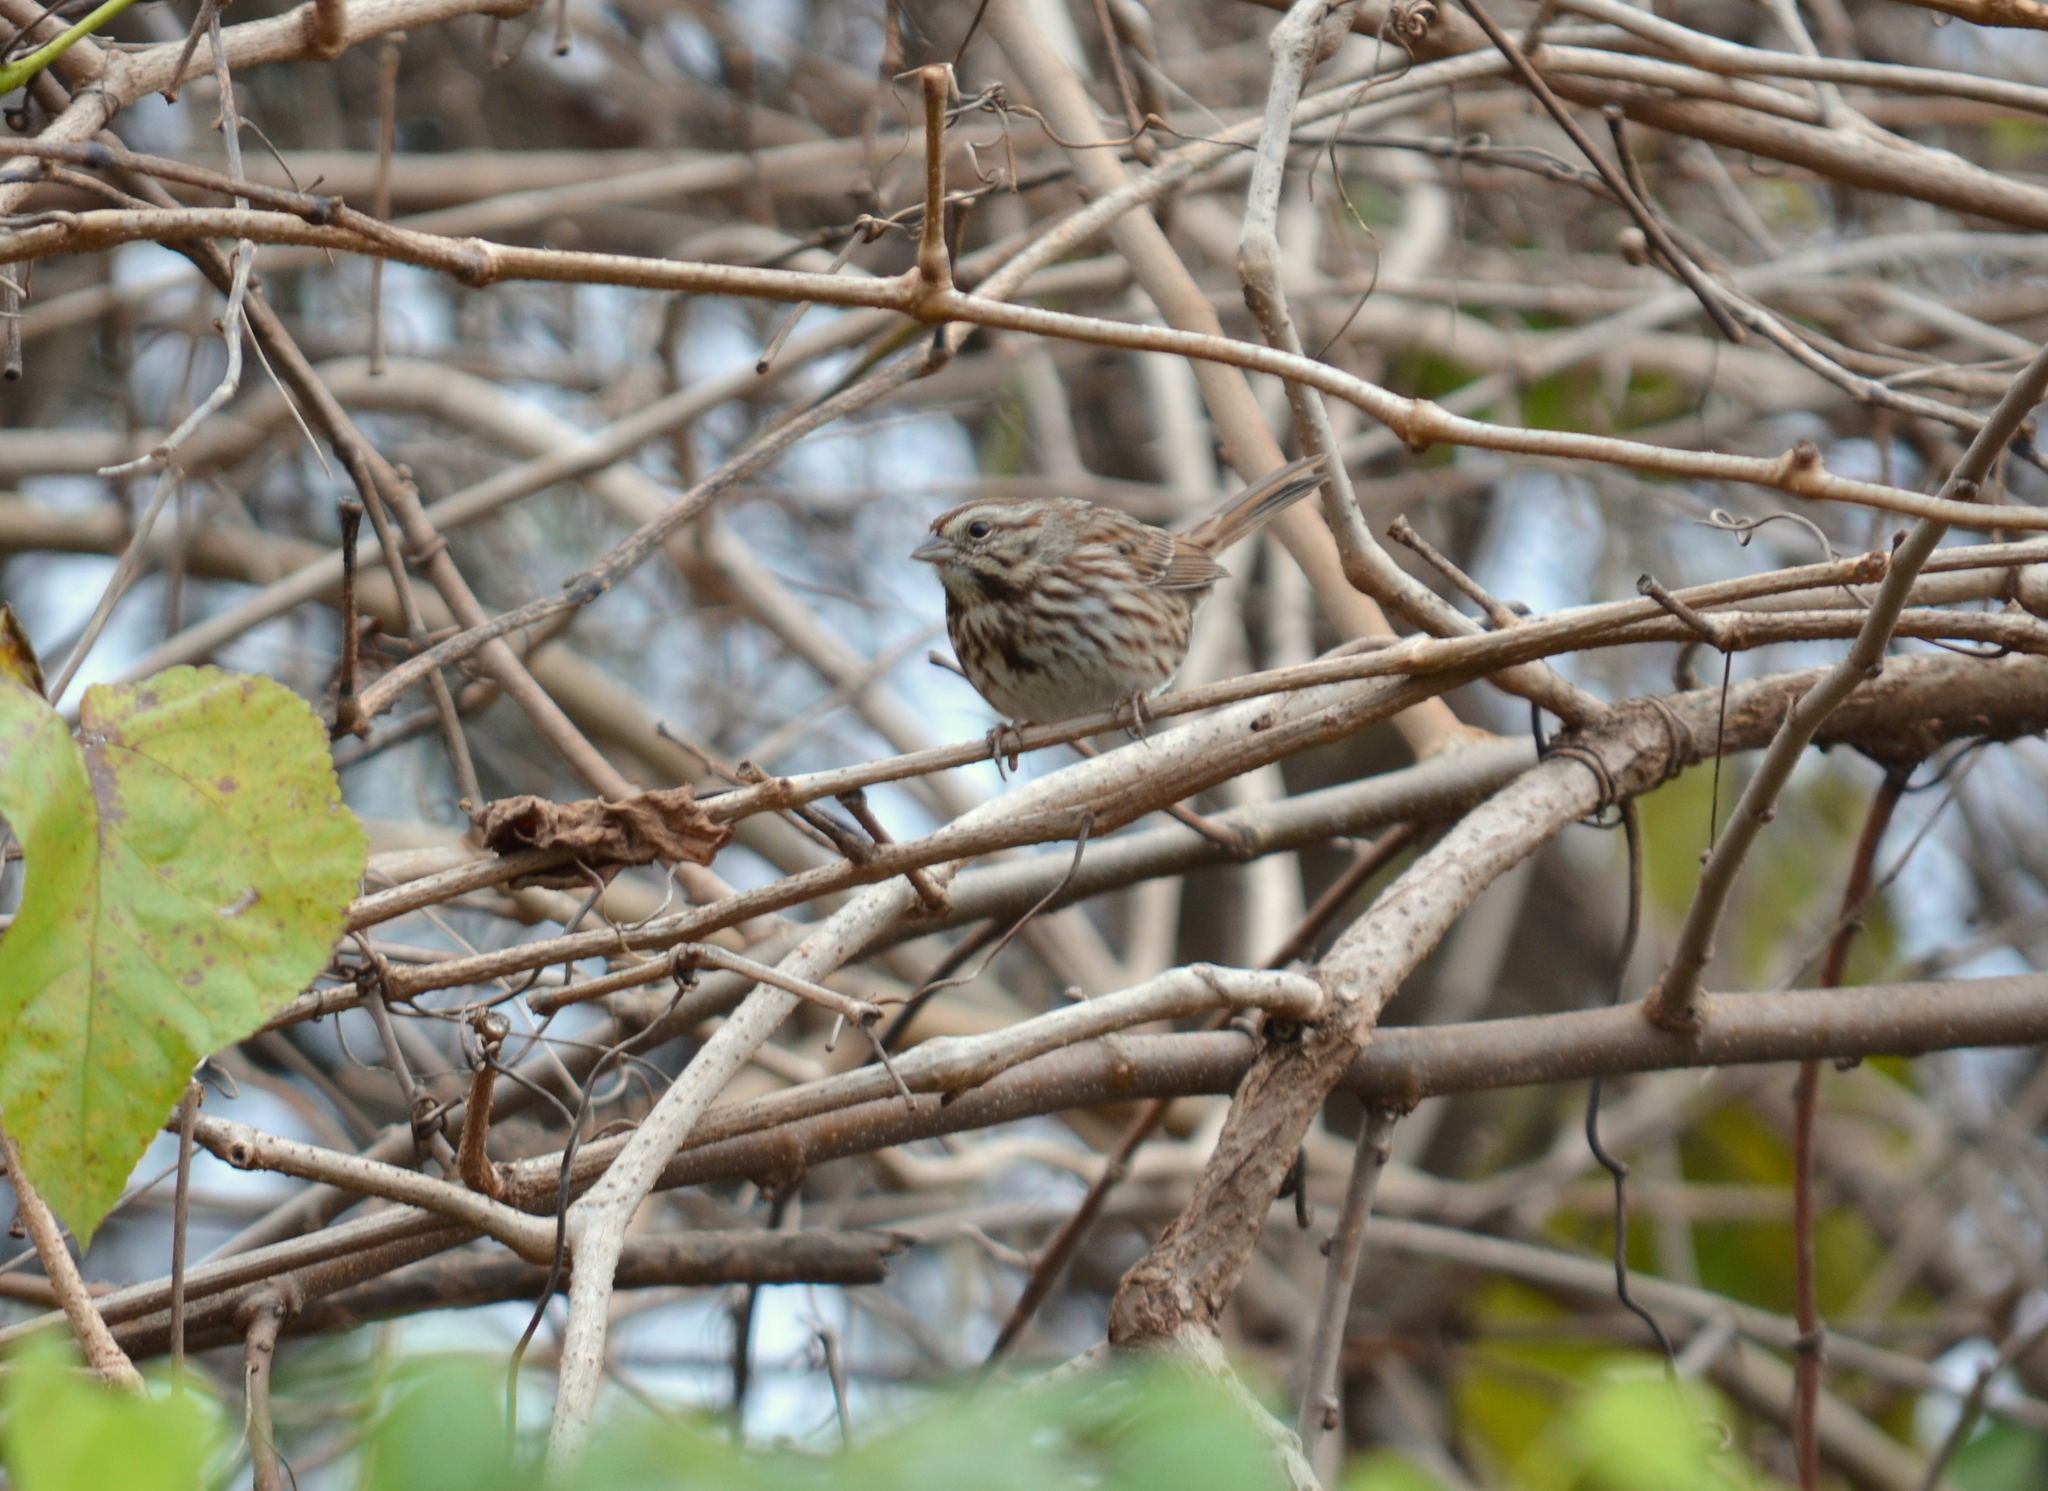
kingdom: Animalia
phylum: Chordata
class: Aves
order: Passeriformes
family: Passerellidae
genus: Melospiza
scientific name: Melospiza melodia
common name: Song sparrow
